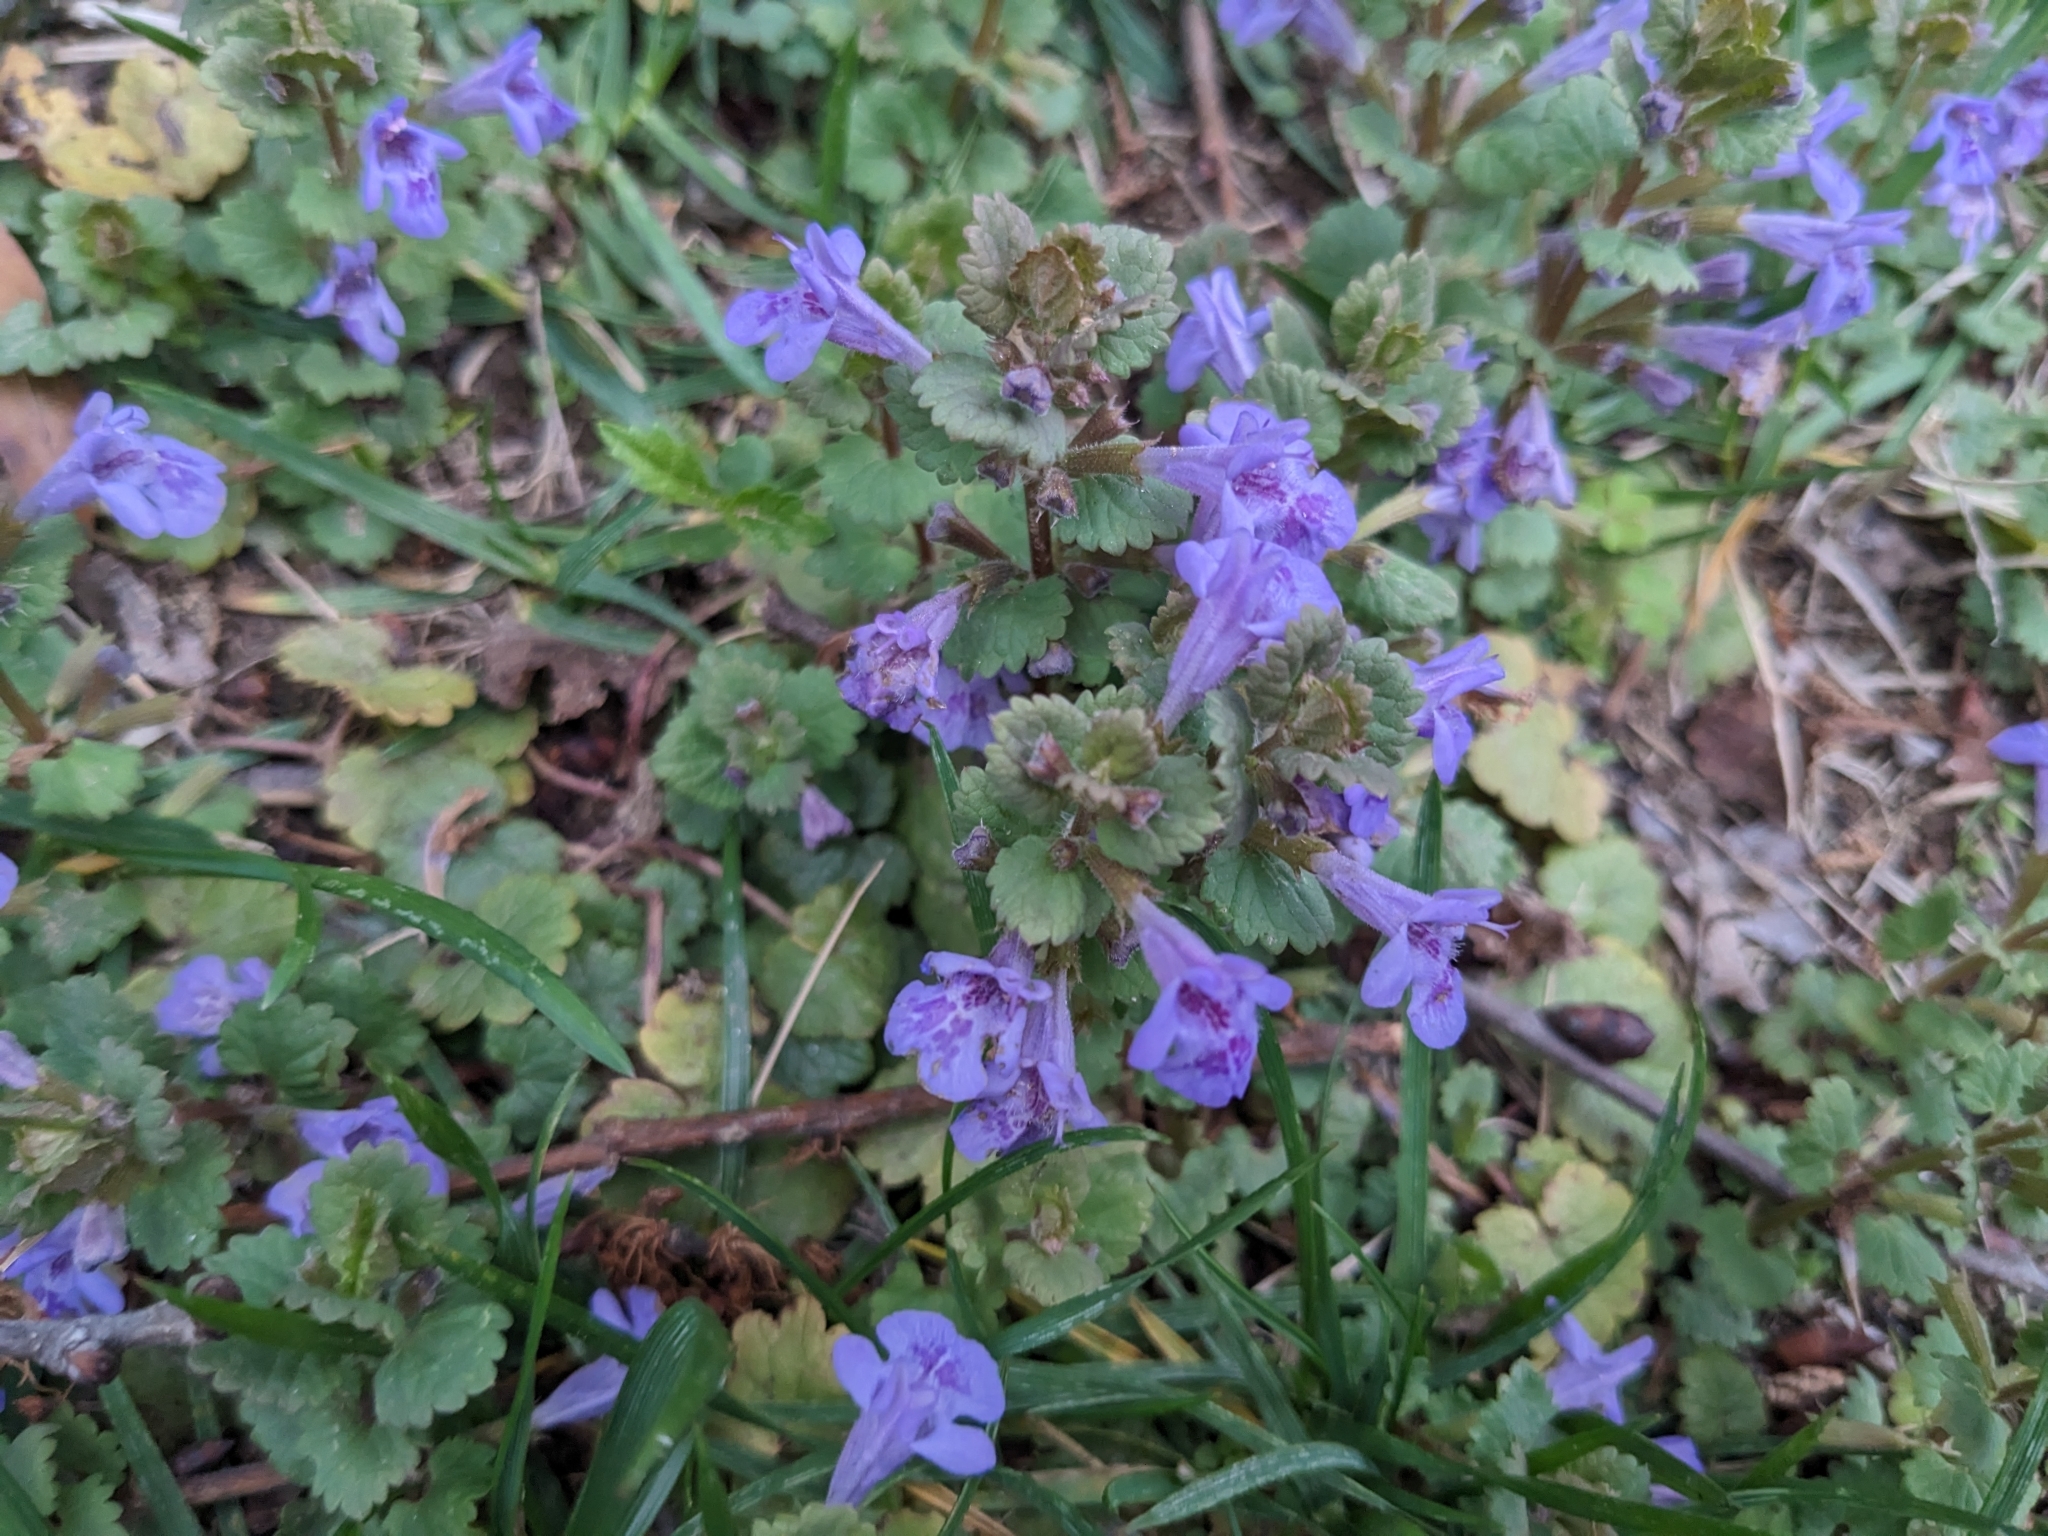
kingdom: Plantae
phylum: Tracheophyta
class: Magnoliopsida
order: Lamiales
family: Lamiaceae
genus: Glechoma
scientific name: Glechoma hederacea
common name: Ground ivy
